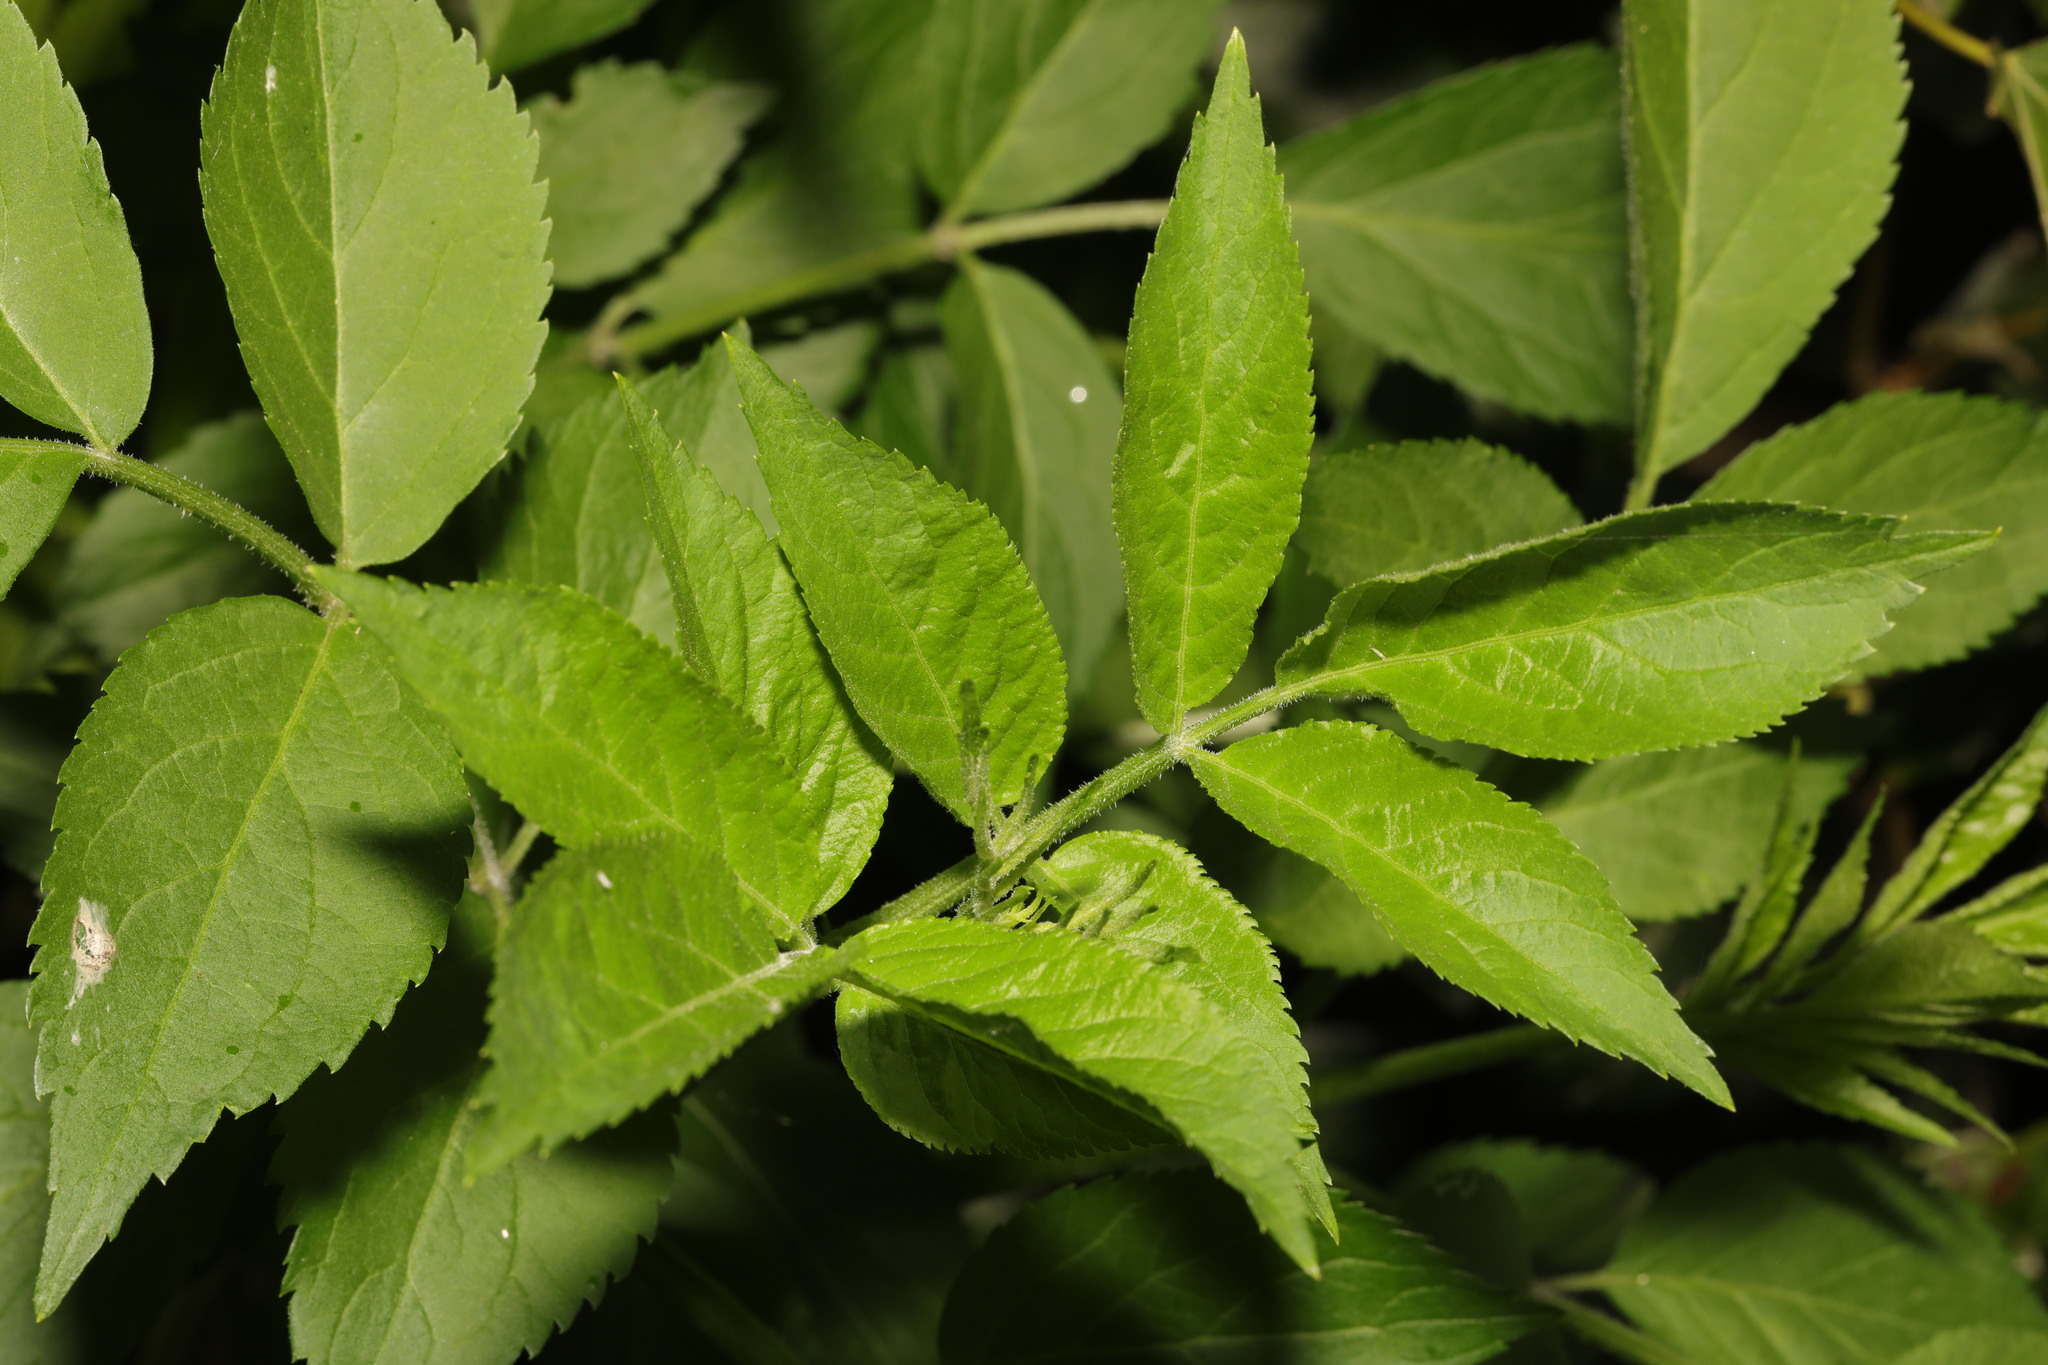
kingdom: Plantae
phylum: Tracheophyta
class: Magnoliopsida
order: Dipsacales
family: Viburnaceae
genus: Sambucus
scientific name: Sambucus nigra
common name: Elder
